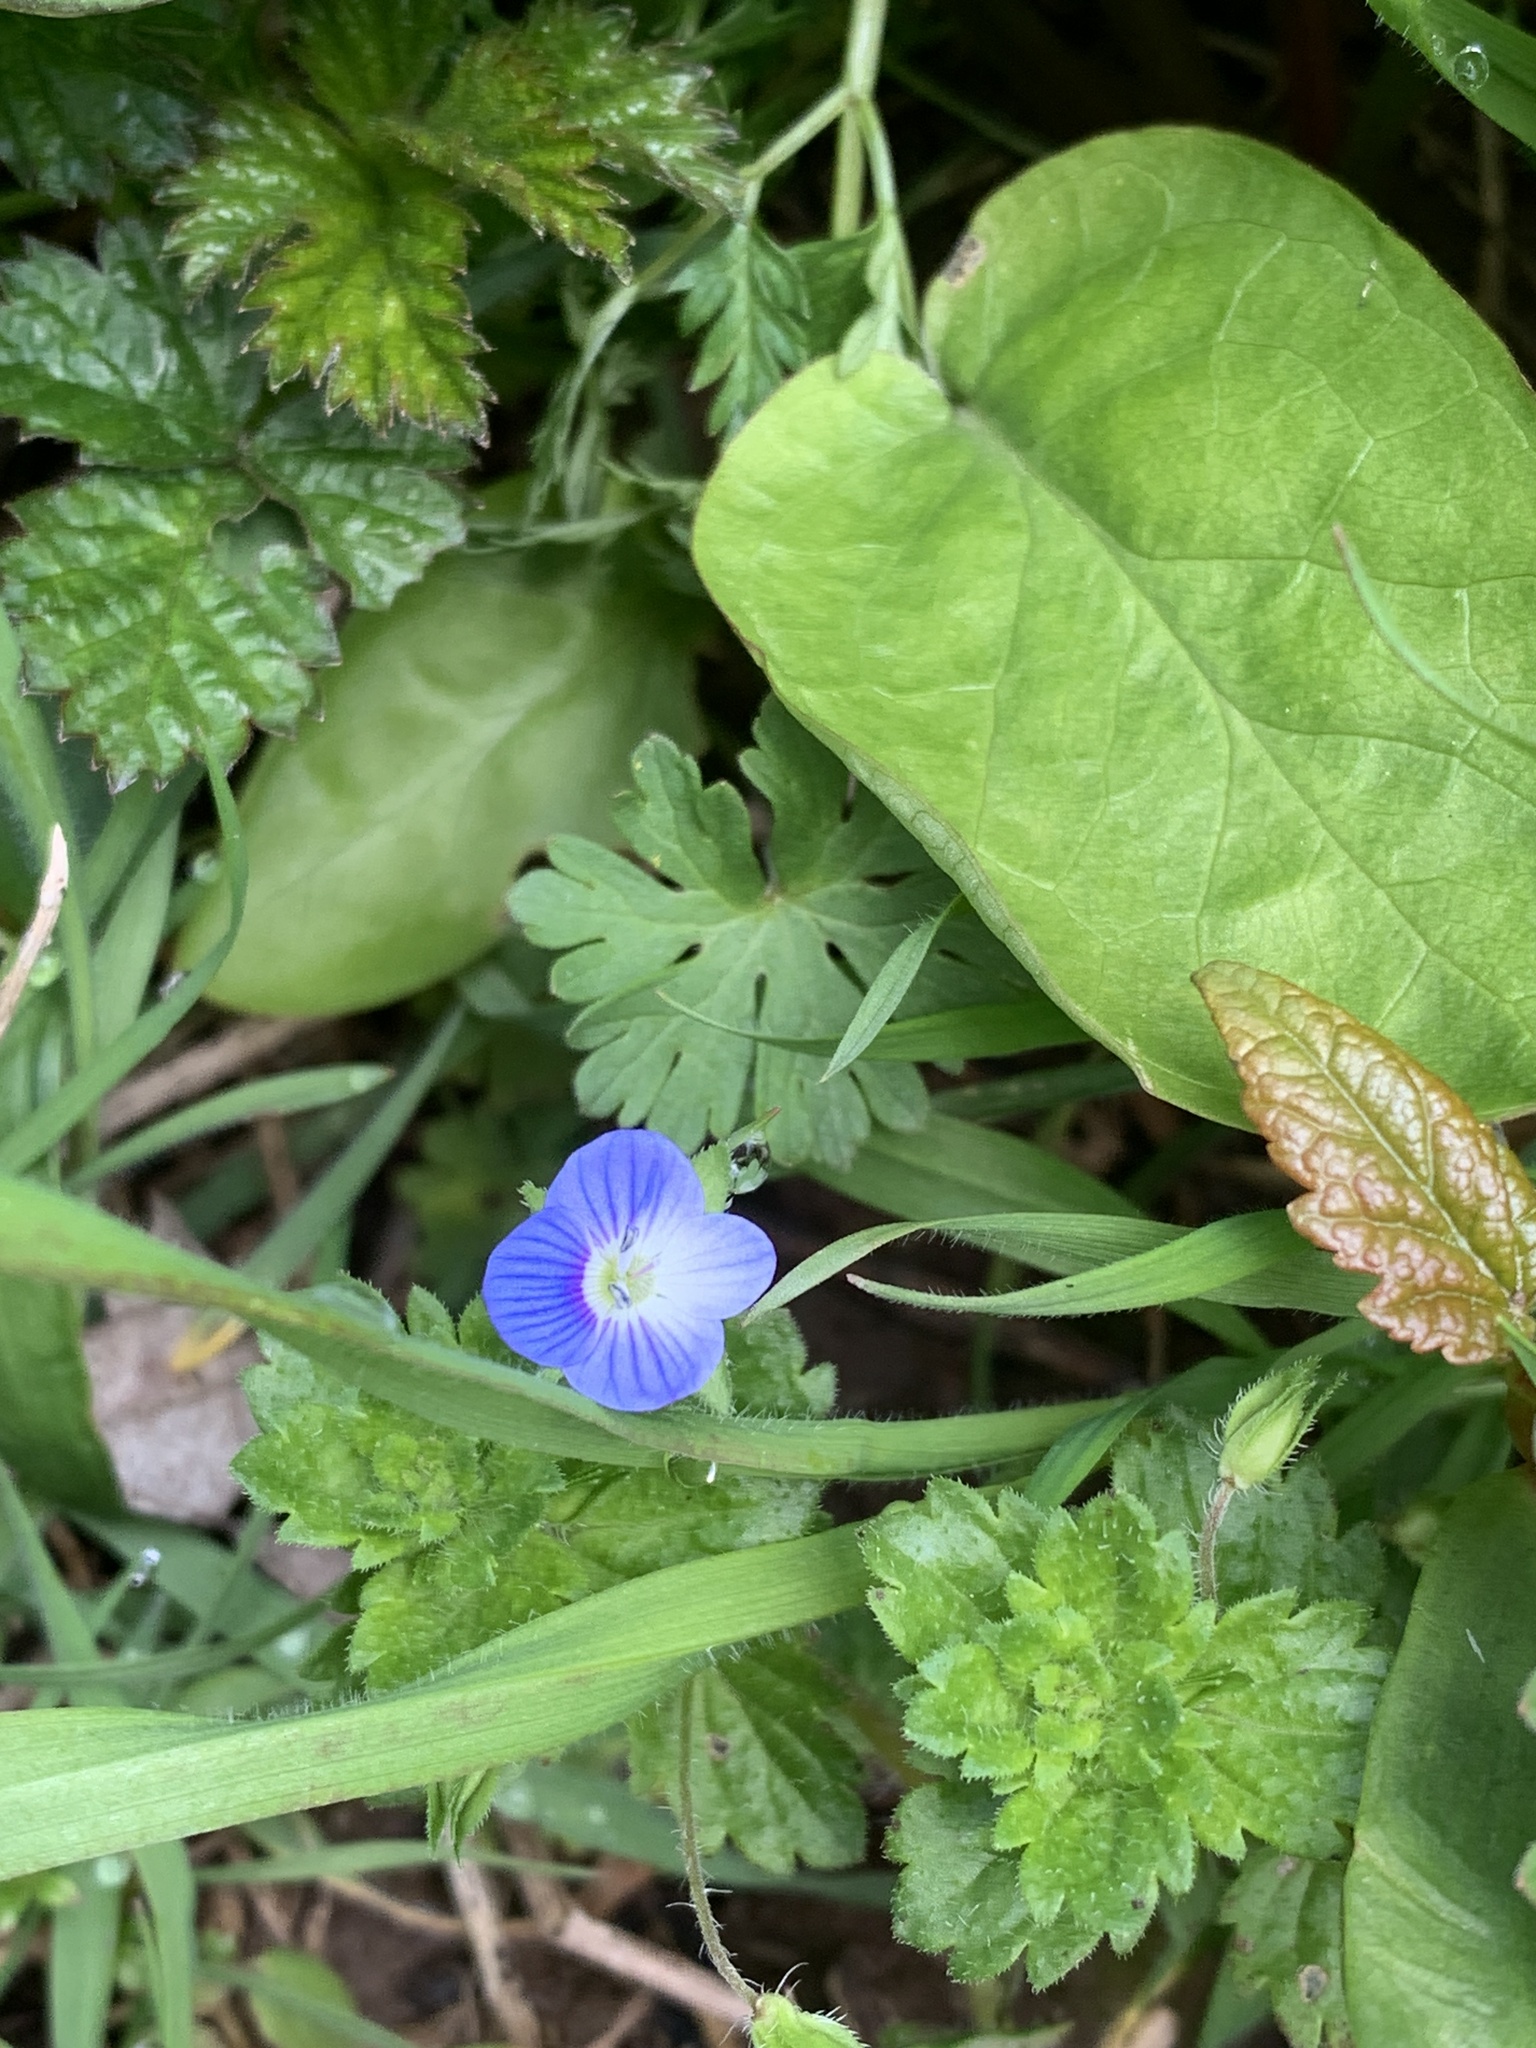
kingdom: Plantae
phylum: Tracheophyta
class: Magnoliopsida
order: Lamiales
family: Plantaginaceae
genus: Veronica
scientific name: Veronica persica
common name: Common field-speedwell
